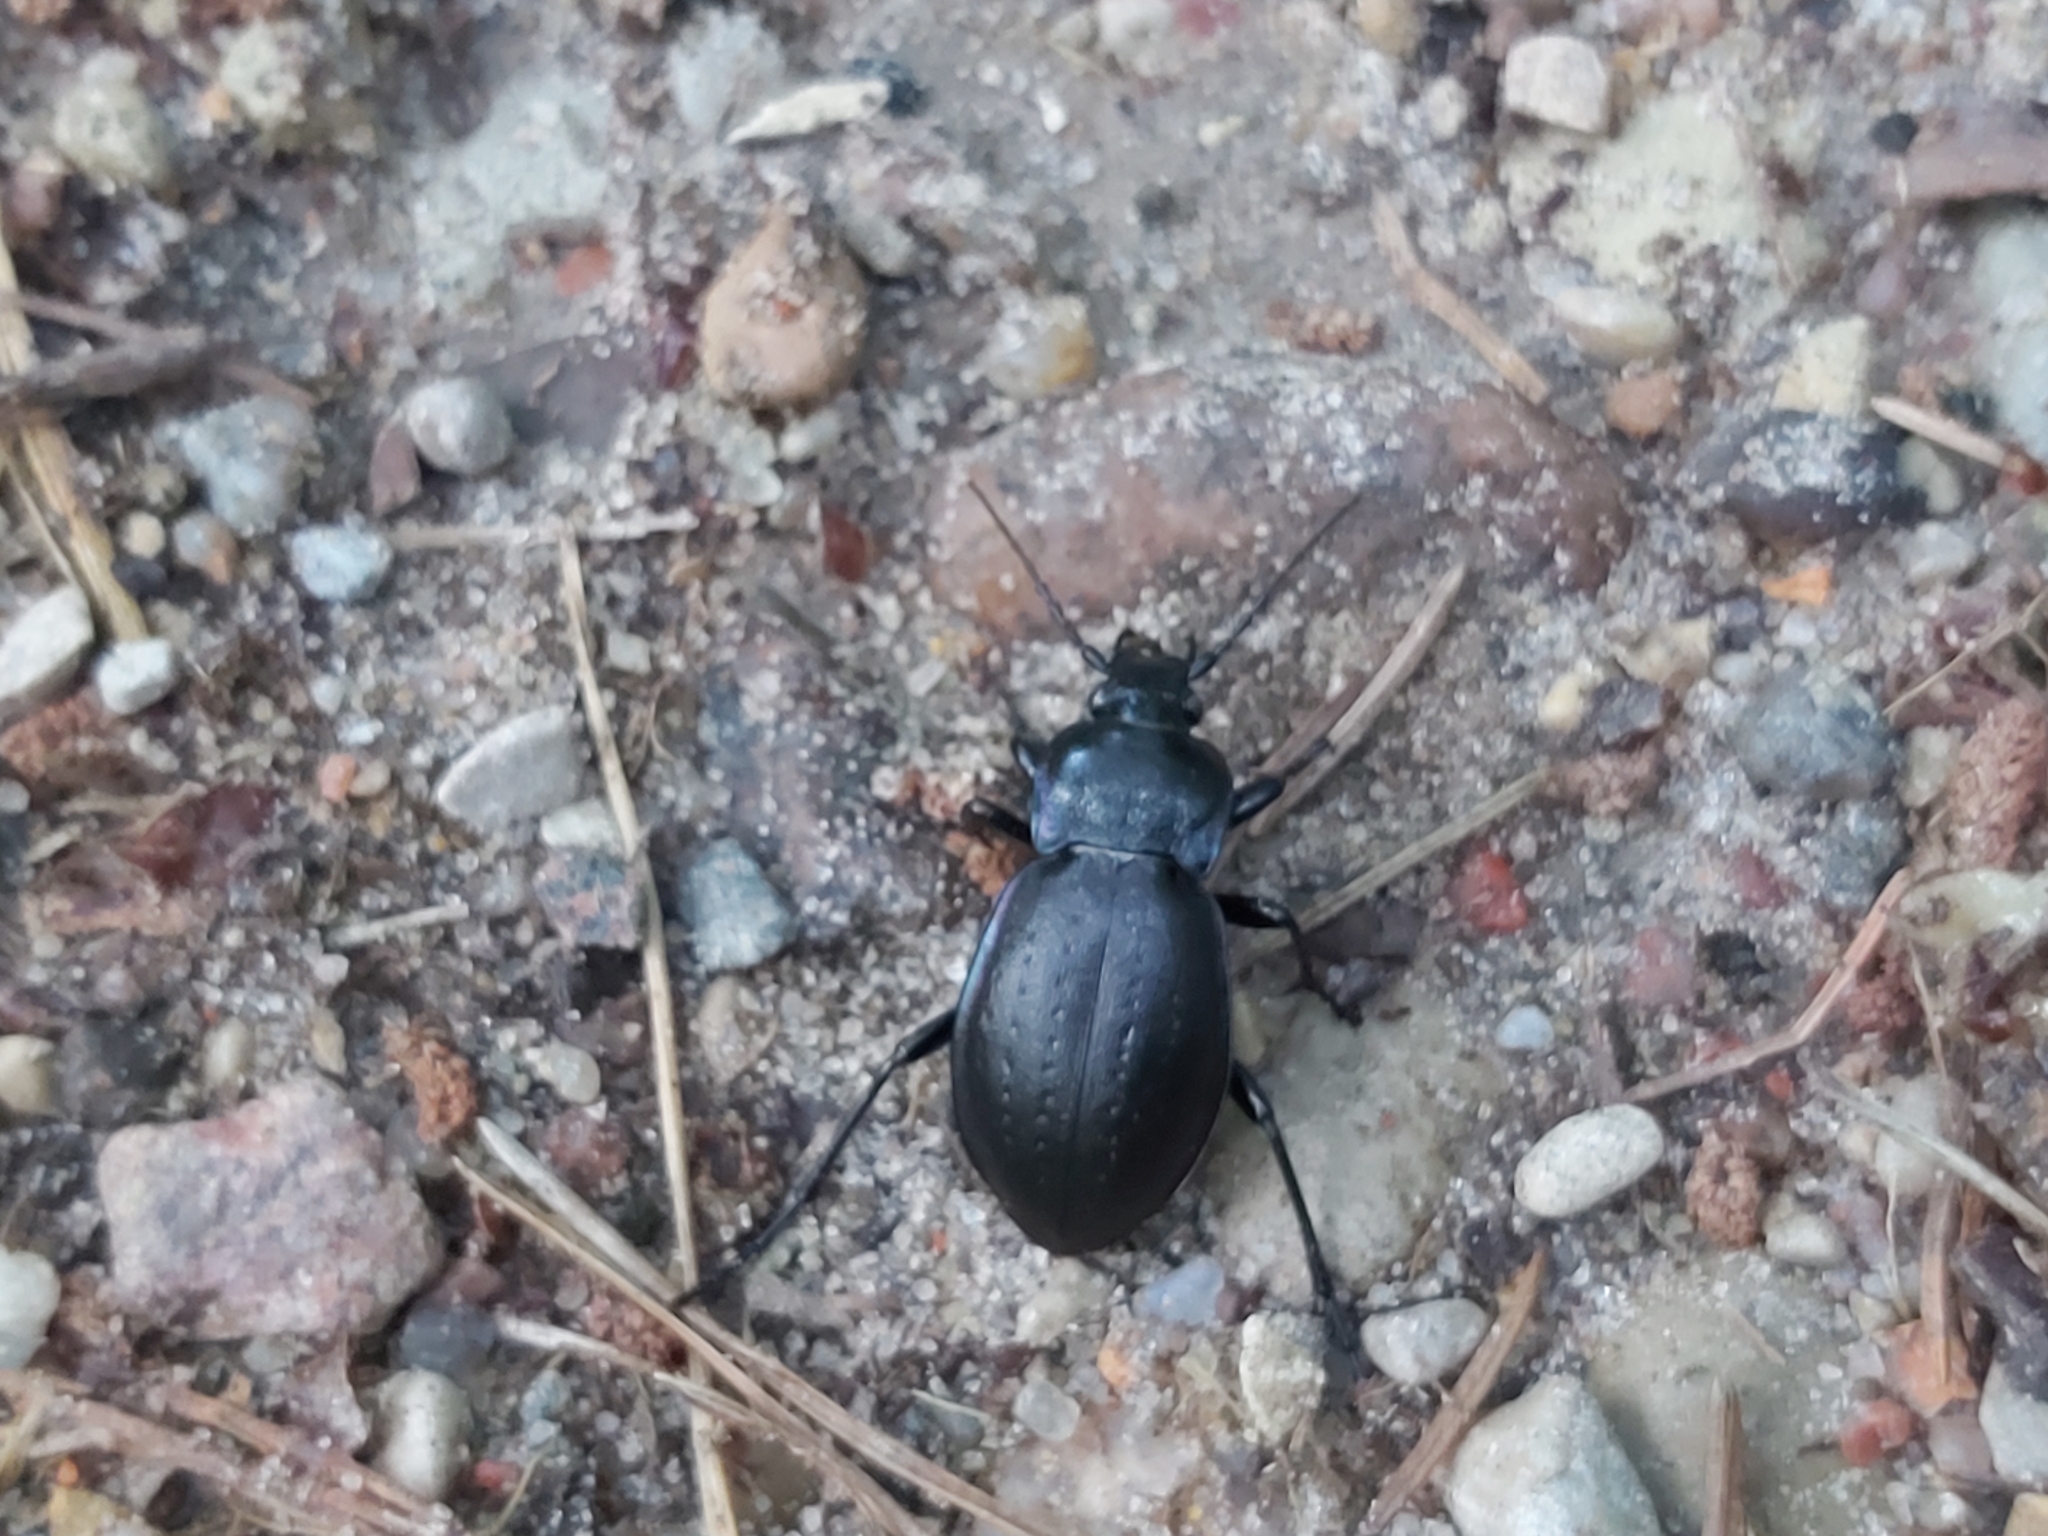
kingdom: Animalia
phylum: Arthropoda
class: Insecta
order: Coleoptera
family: Carabidae
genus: Carabus
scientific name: Carabus nemoralis
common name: European ground beetle
